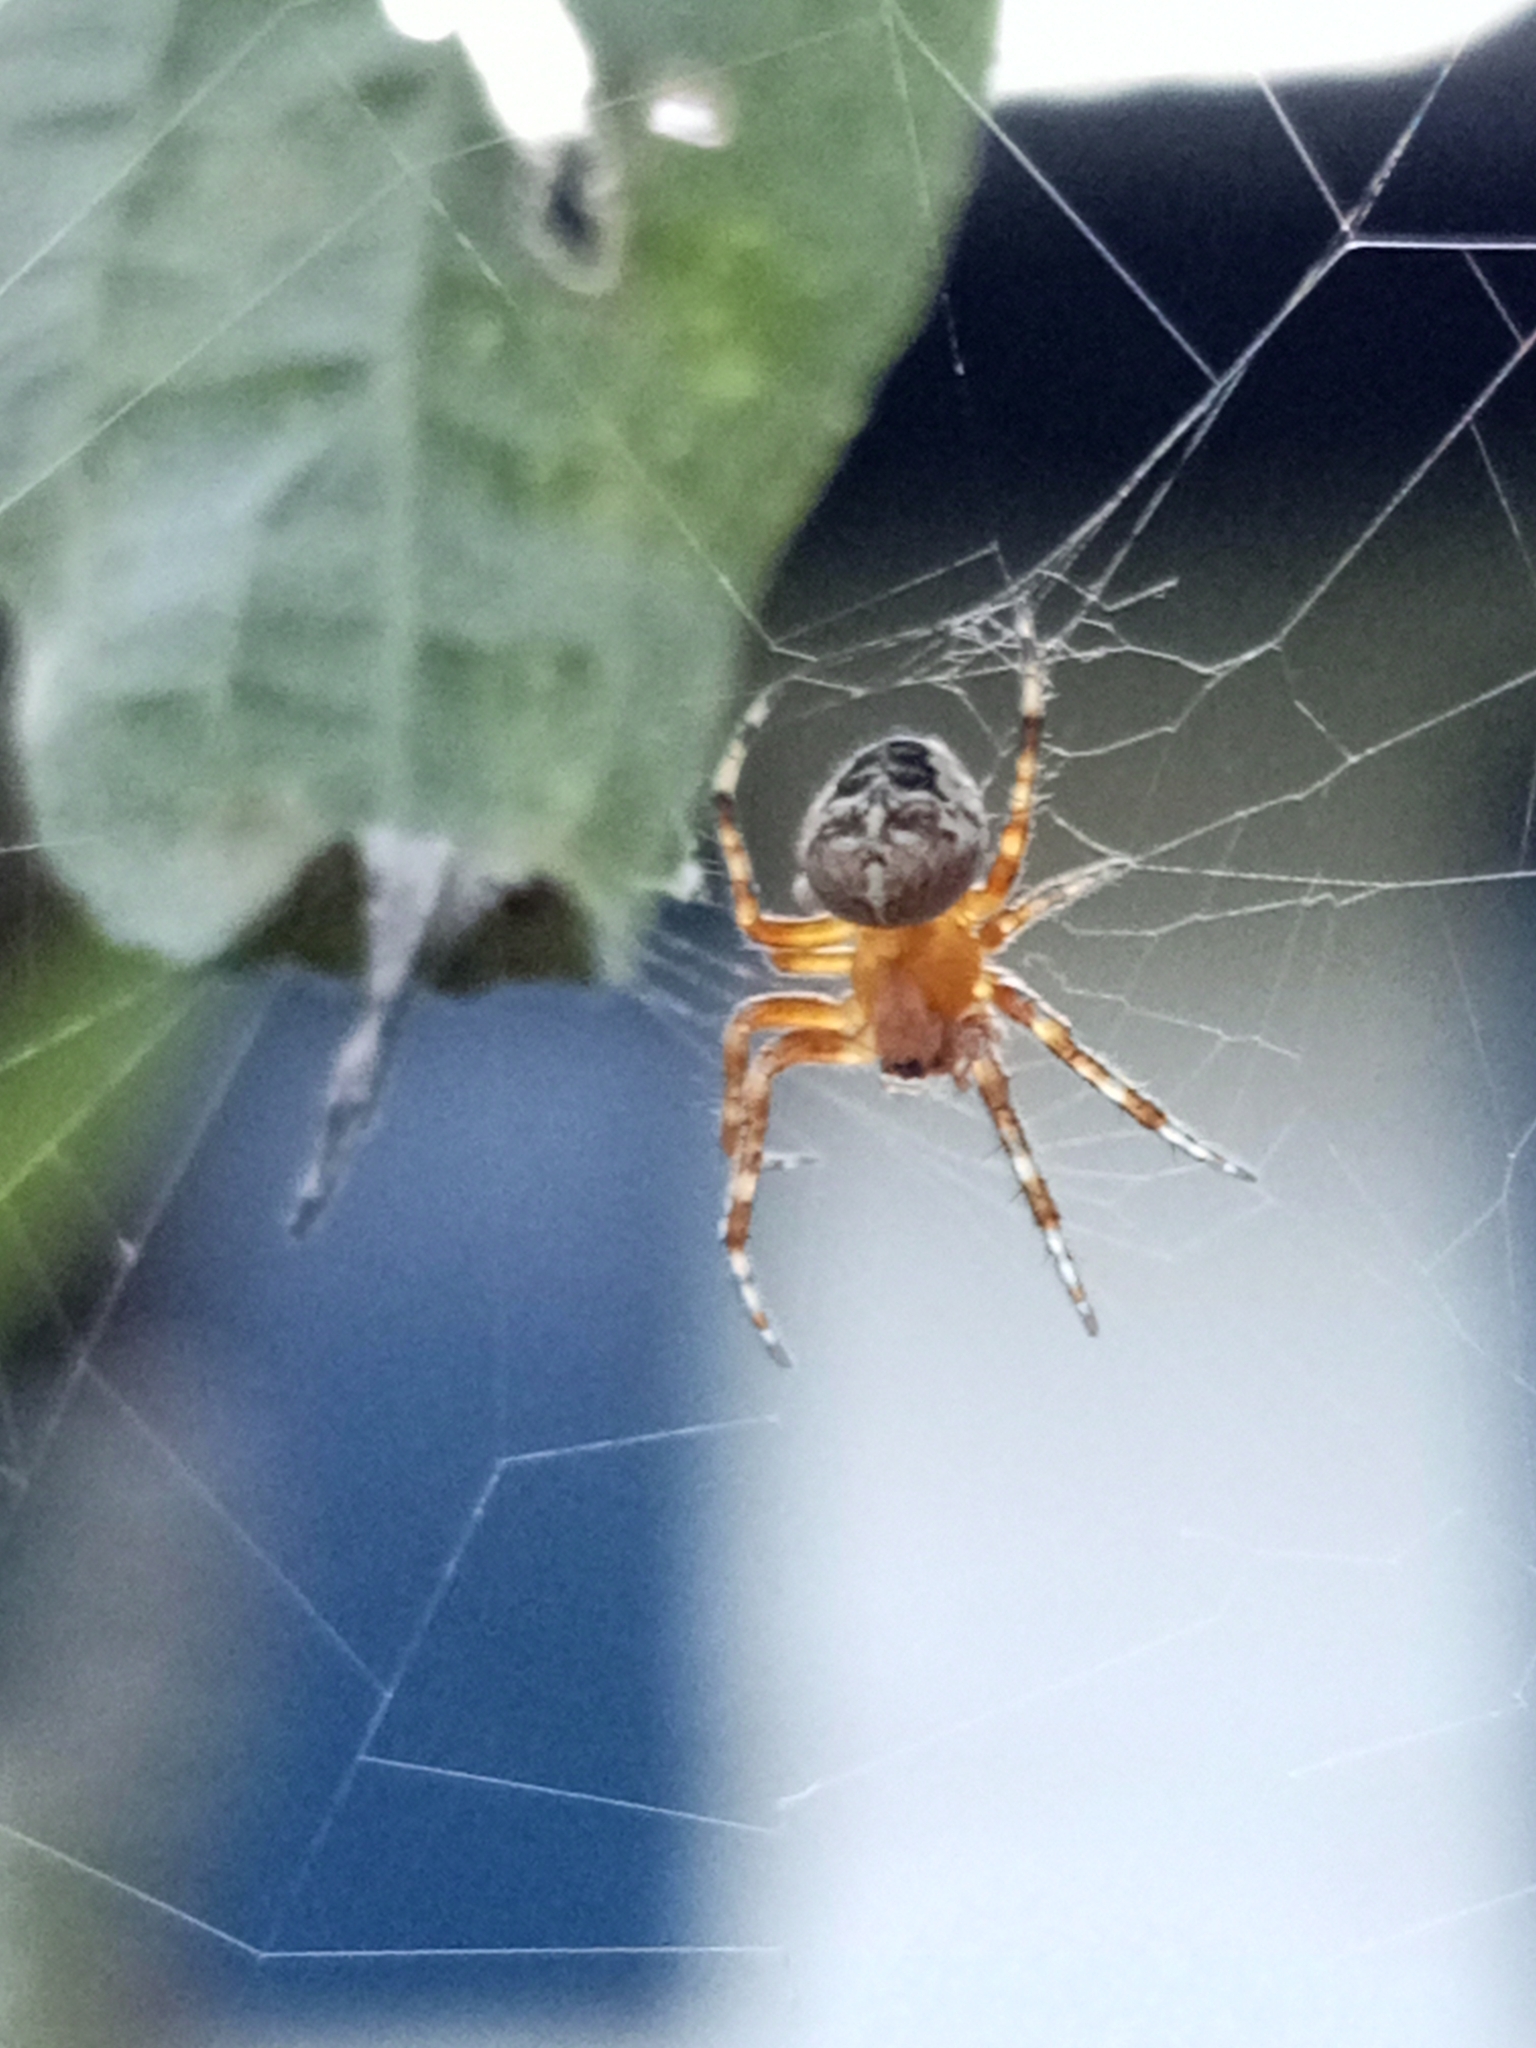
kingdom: Animalia
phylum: Arthropoda
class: Arachnida
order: Araneae
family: Araneidae
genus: Araneus
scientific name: Araneus diadematus
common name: Cross orbweaver
